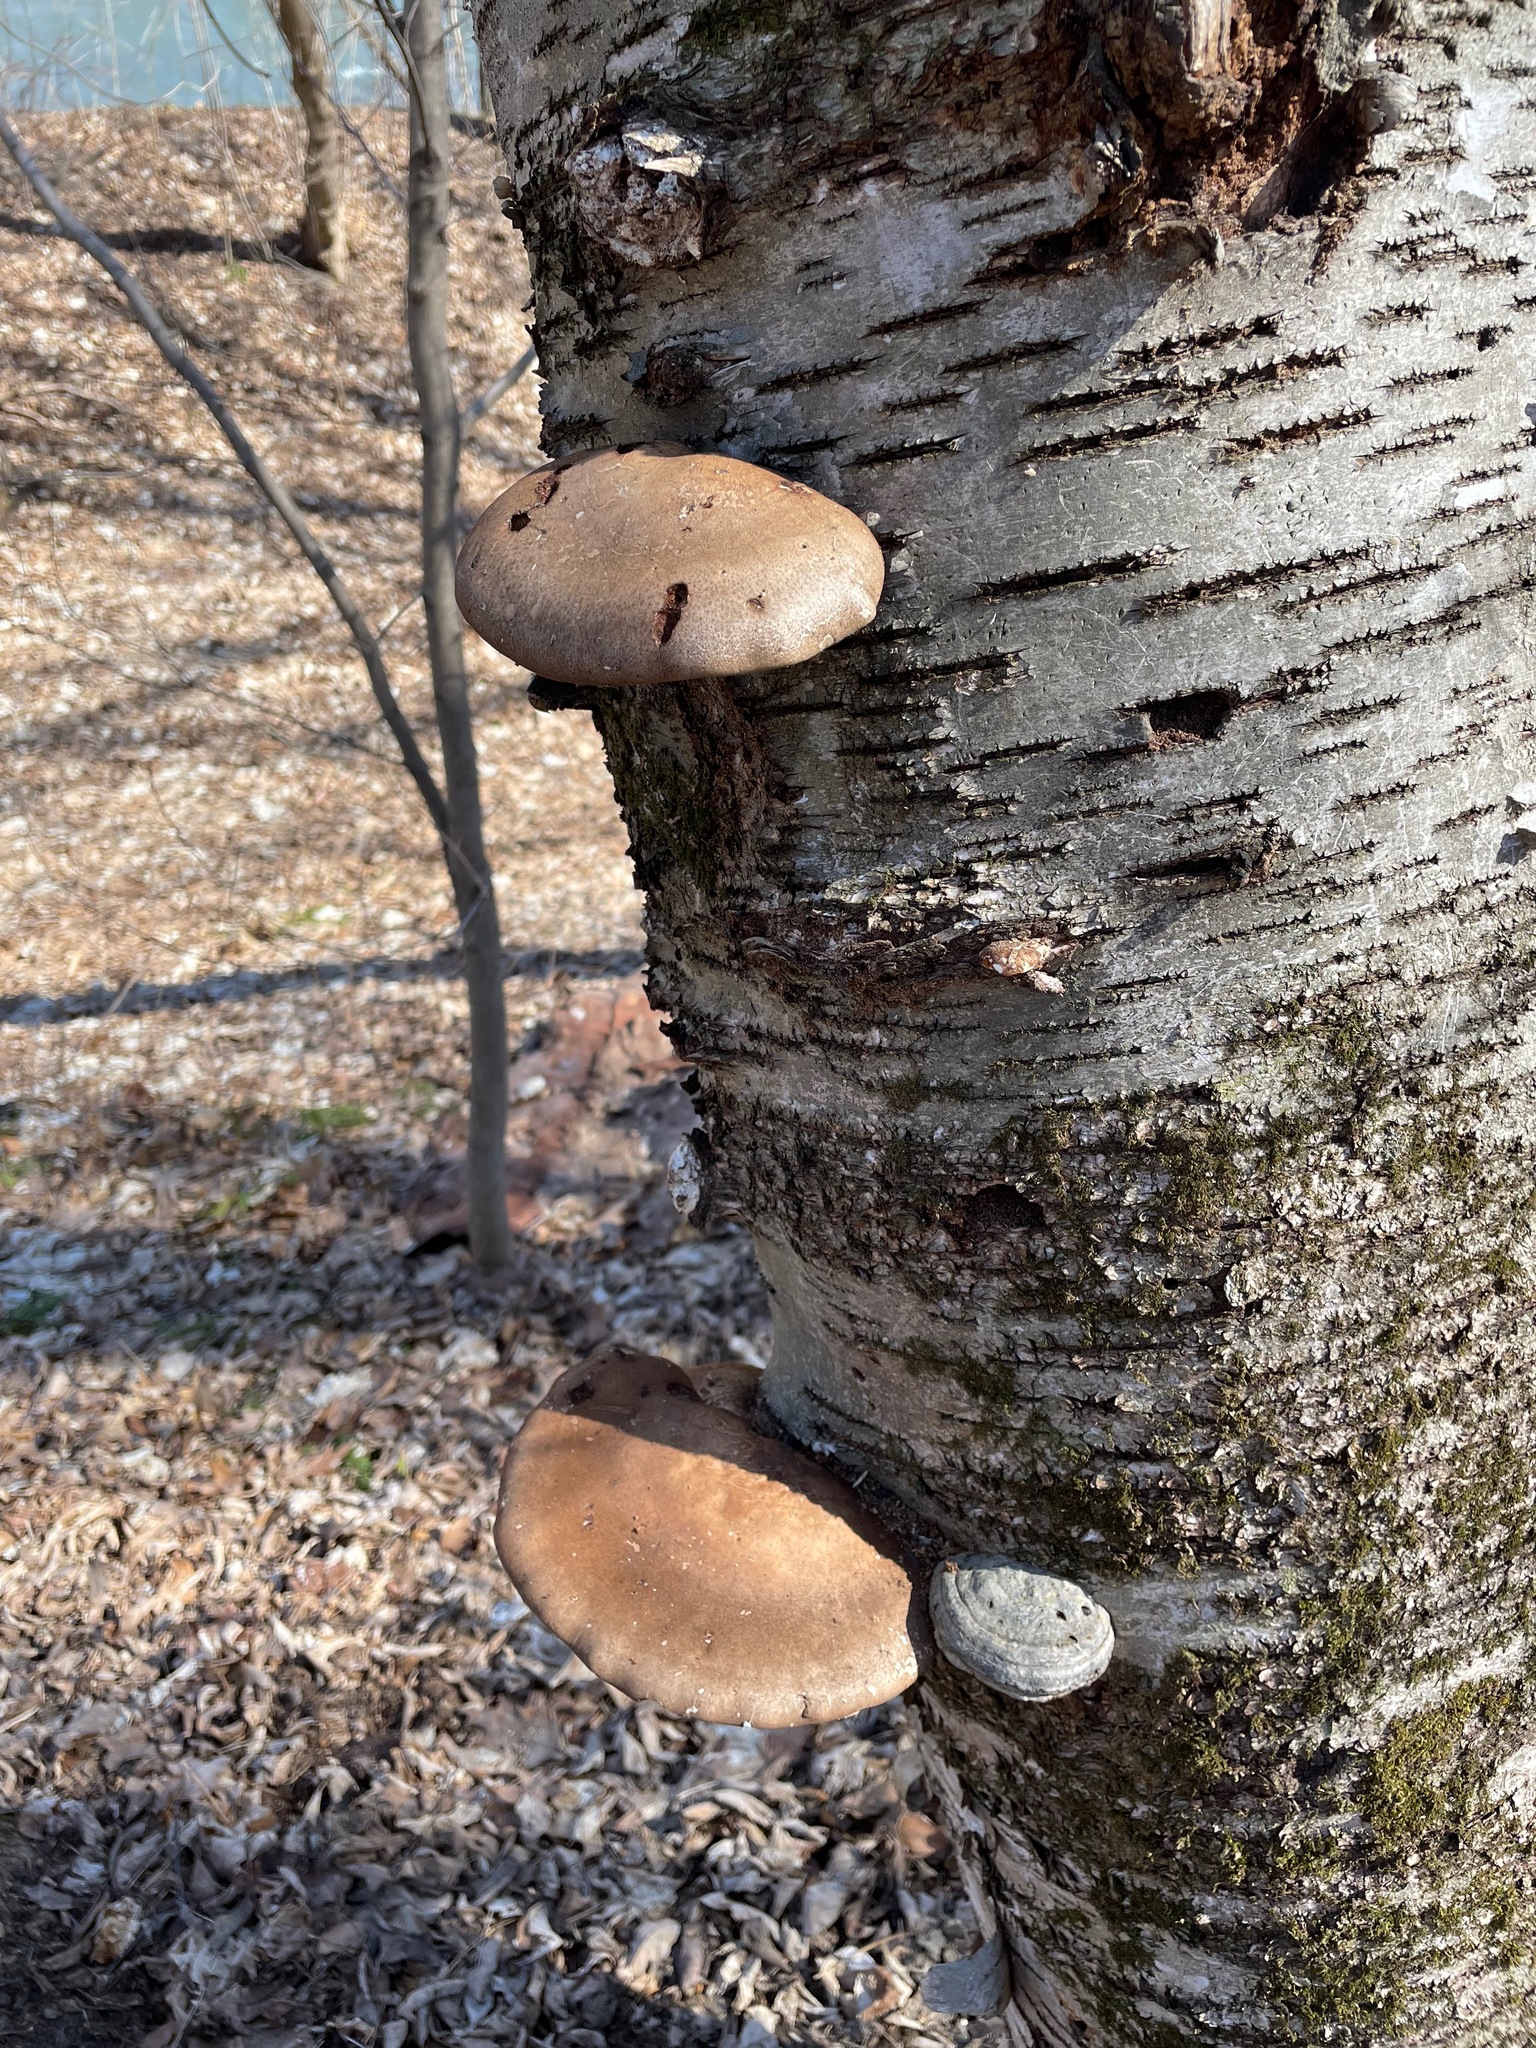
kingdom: Fungi
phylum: Basidiomycota
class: Agaricomycetes
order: Polyporales
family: Fomitopsidaceae
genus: Fomitopsis
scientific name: Fomitopsis betulina
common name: Birch polypore
